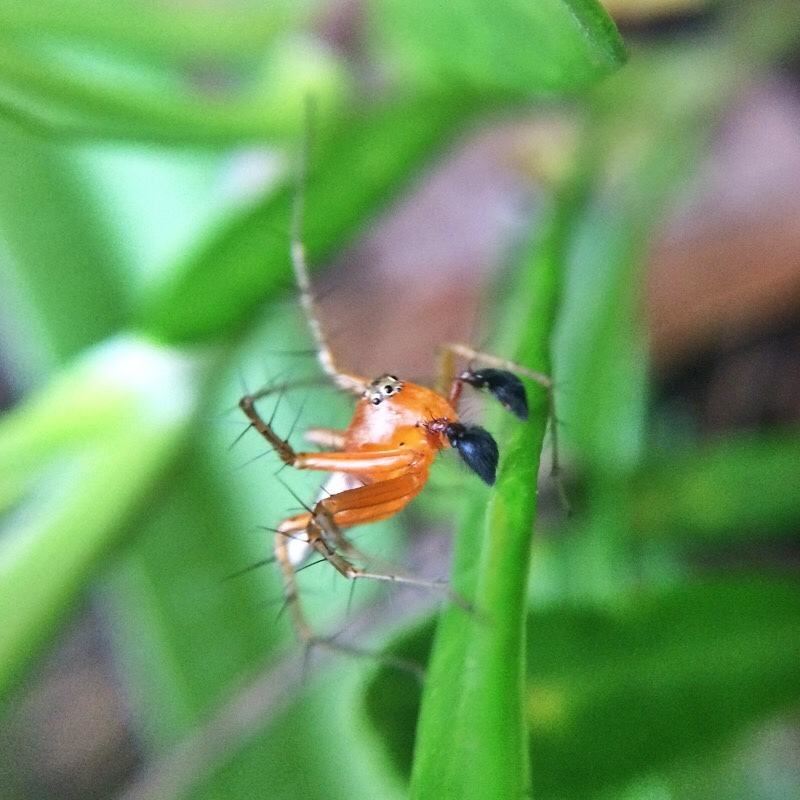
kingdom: Animalia
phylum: Arthropoda
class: Arachnida
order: Araneae
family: Oxyopidae
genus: Oxyopes
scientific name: Oxyopes vogelsangeri
